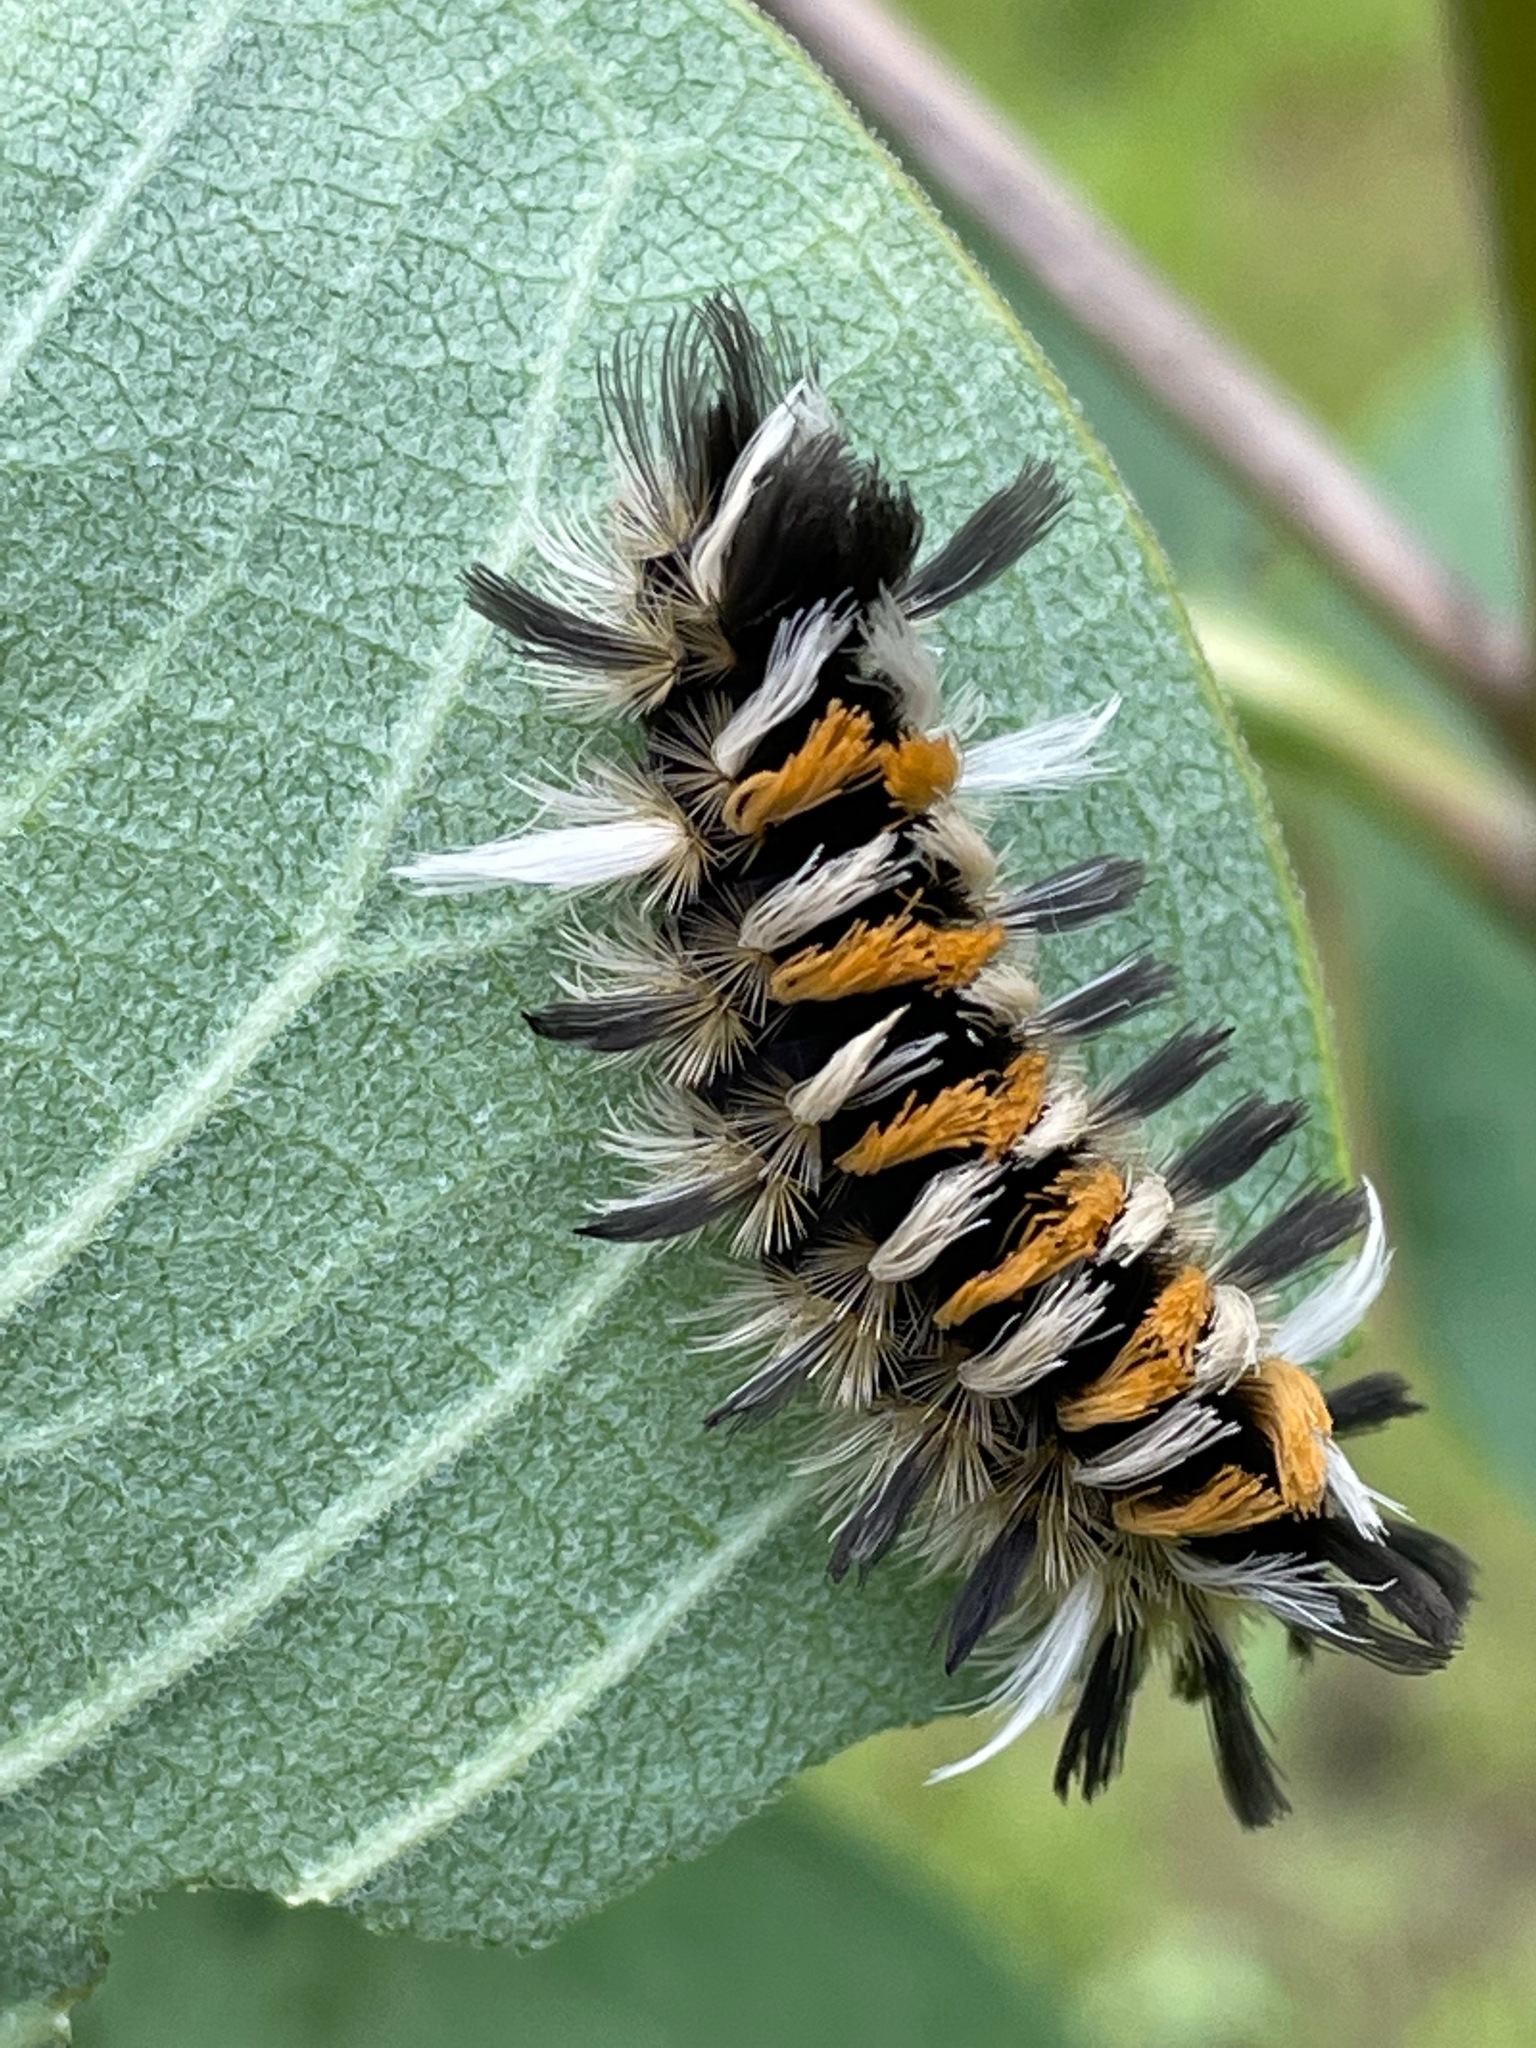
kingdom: Animalia
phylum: Arthropoda
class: Insecta
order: Lepidoptera
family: Erebidae
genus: Euchaetes
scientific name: Euchaetes egle
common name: Milkweed tussock moth
